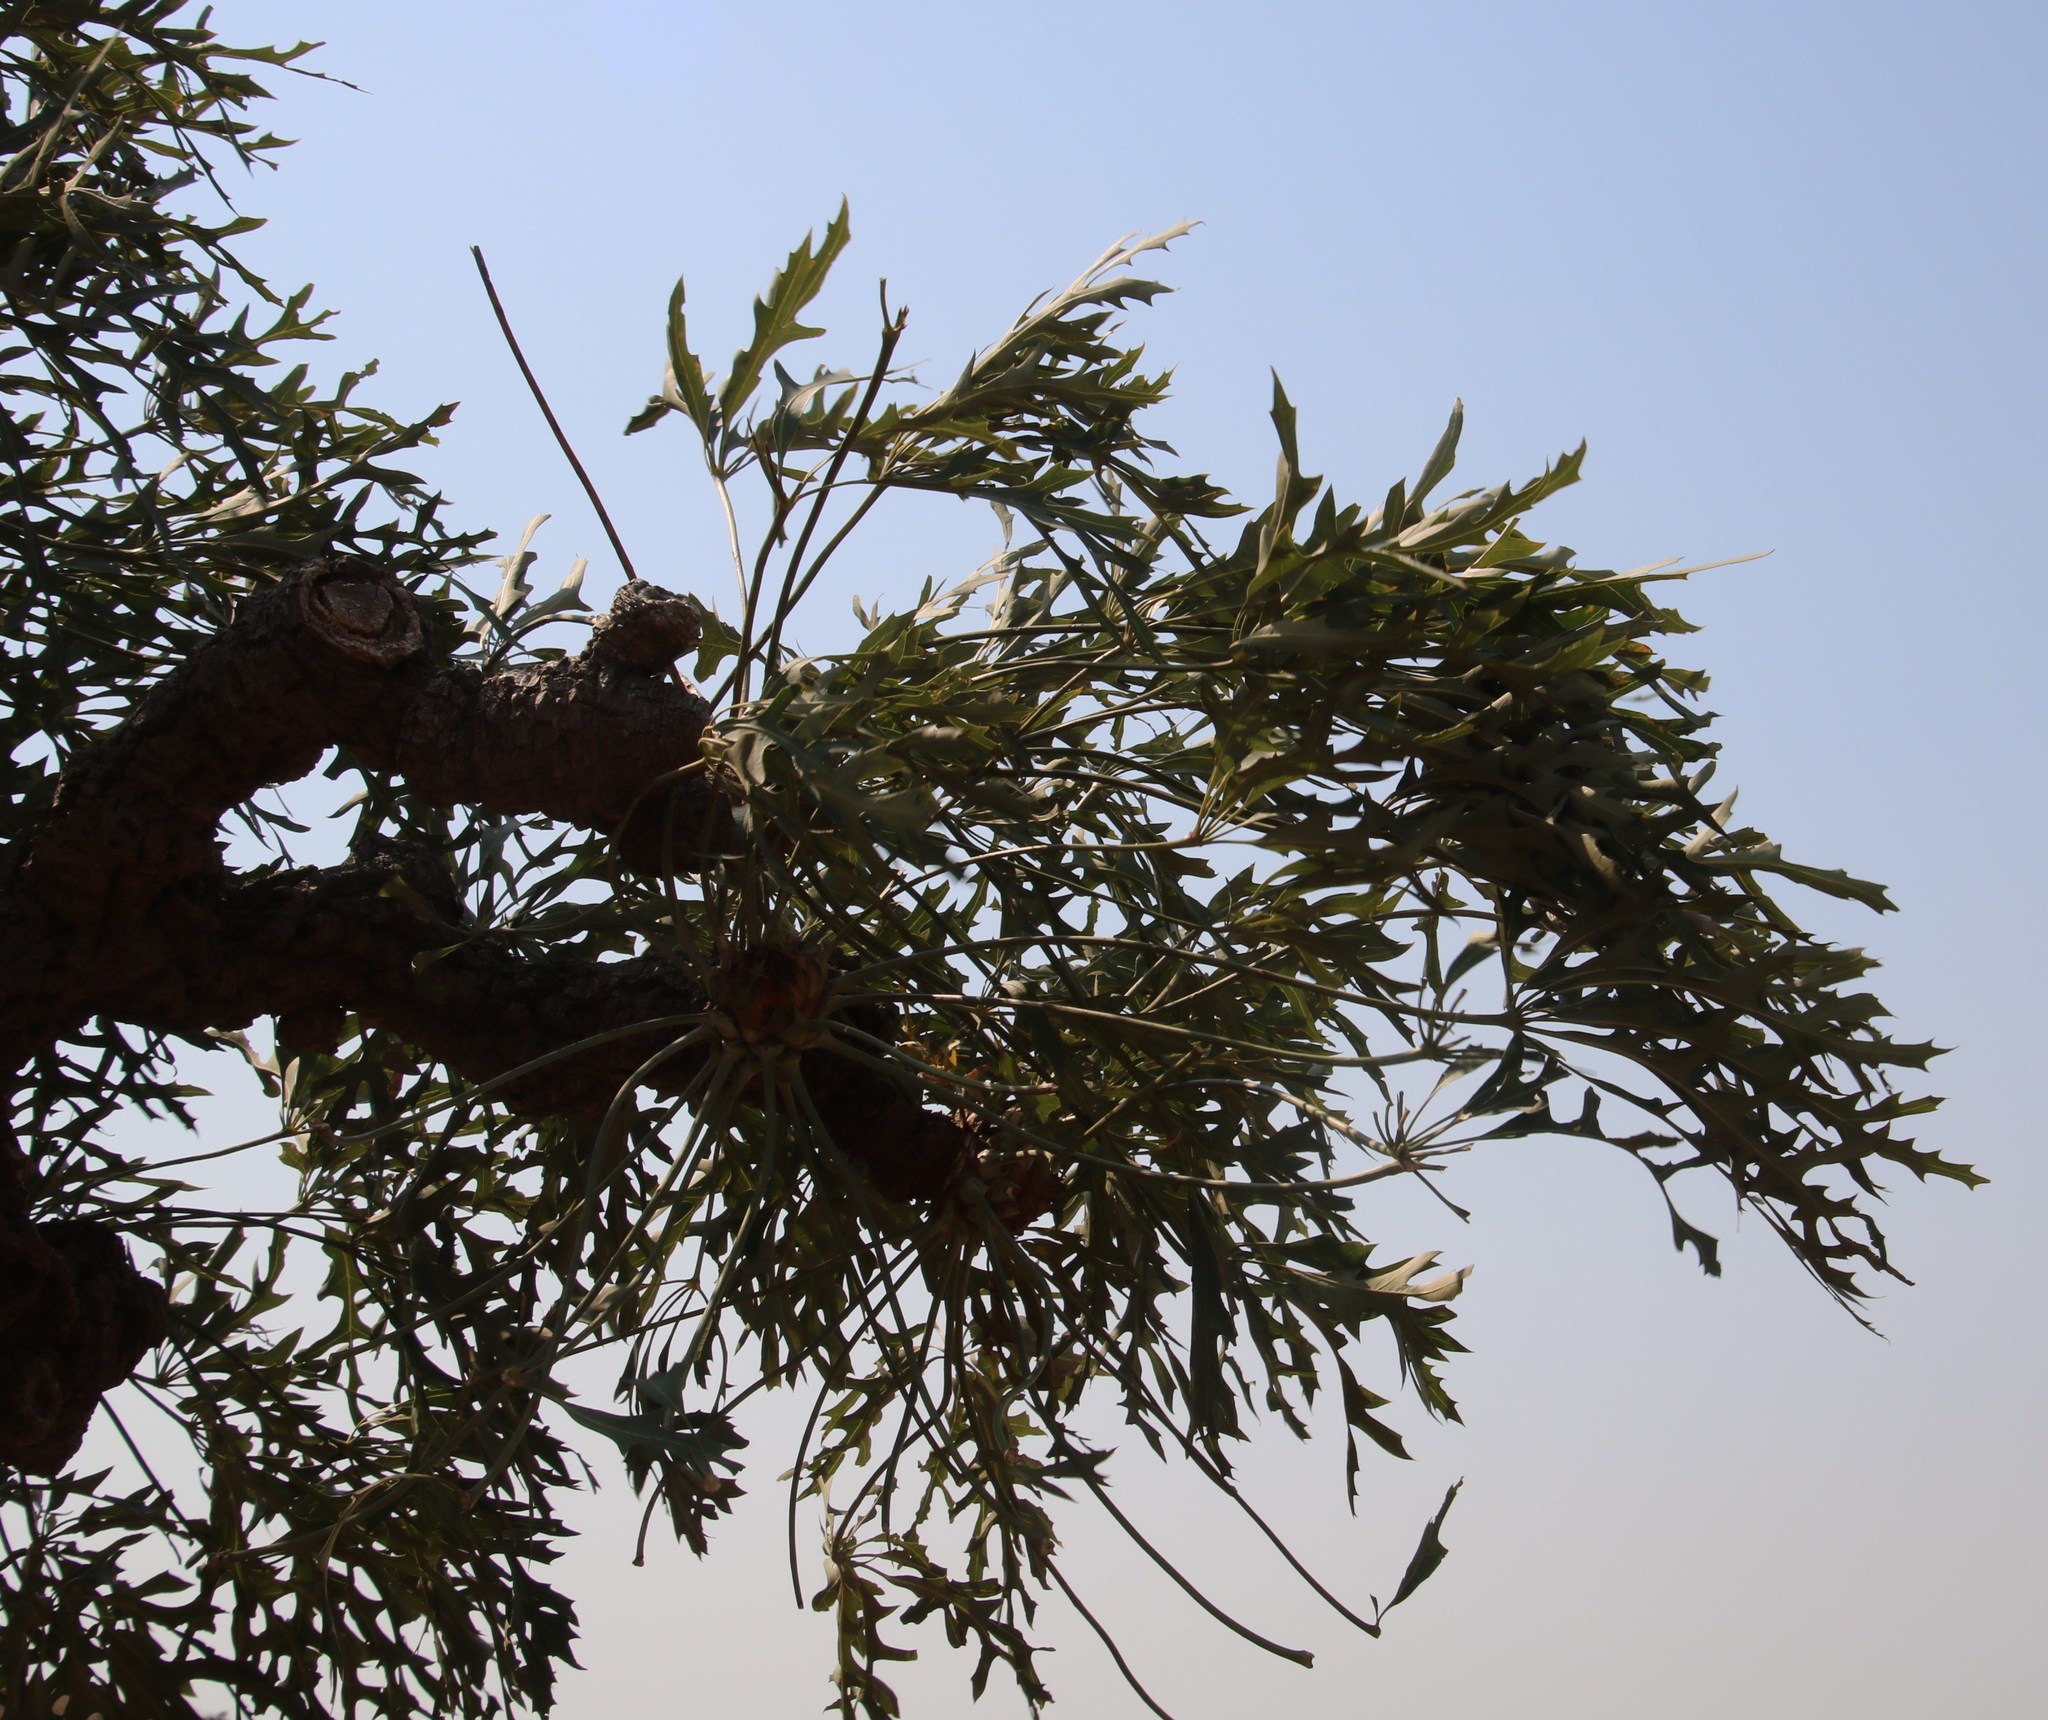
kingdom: Plantae
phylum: Tracheophyta
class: Magnoliopsida
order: Apiales
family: Araliaceae
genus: Cussonia
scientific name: Cussonia paniculata
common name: Cabbagetree
